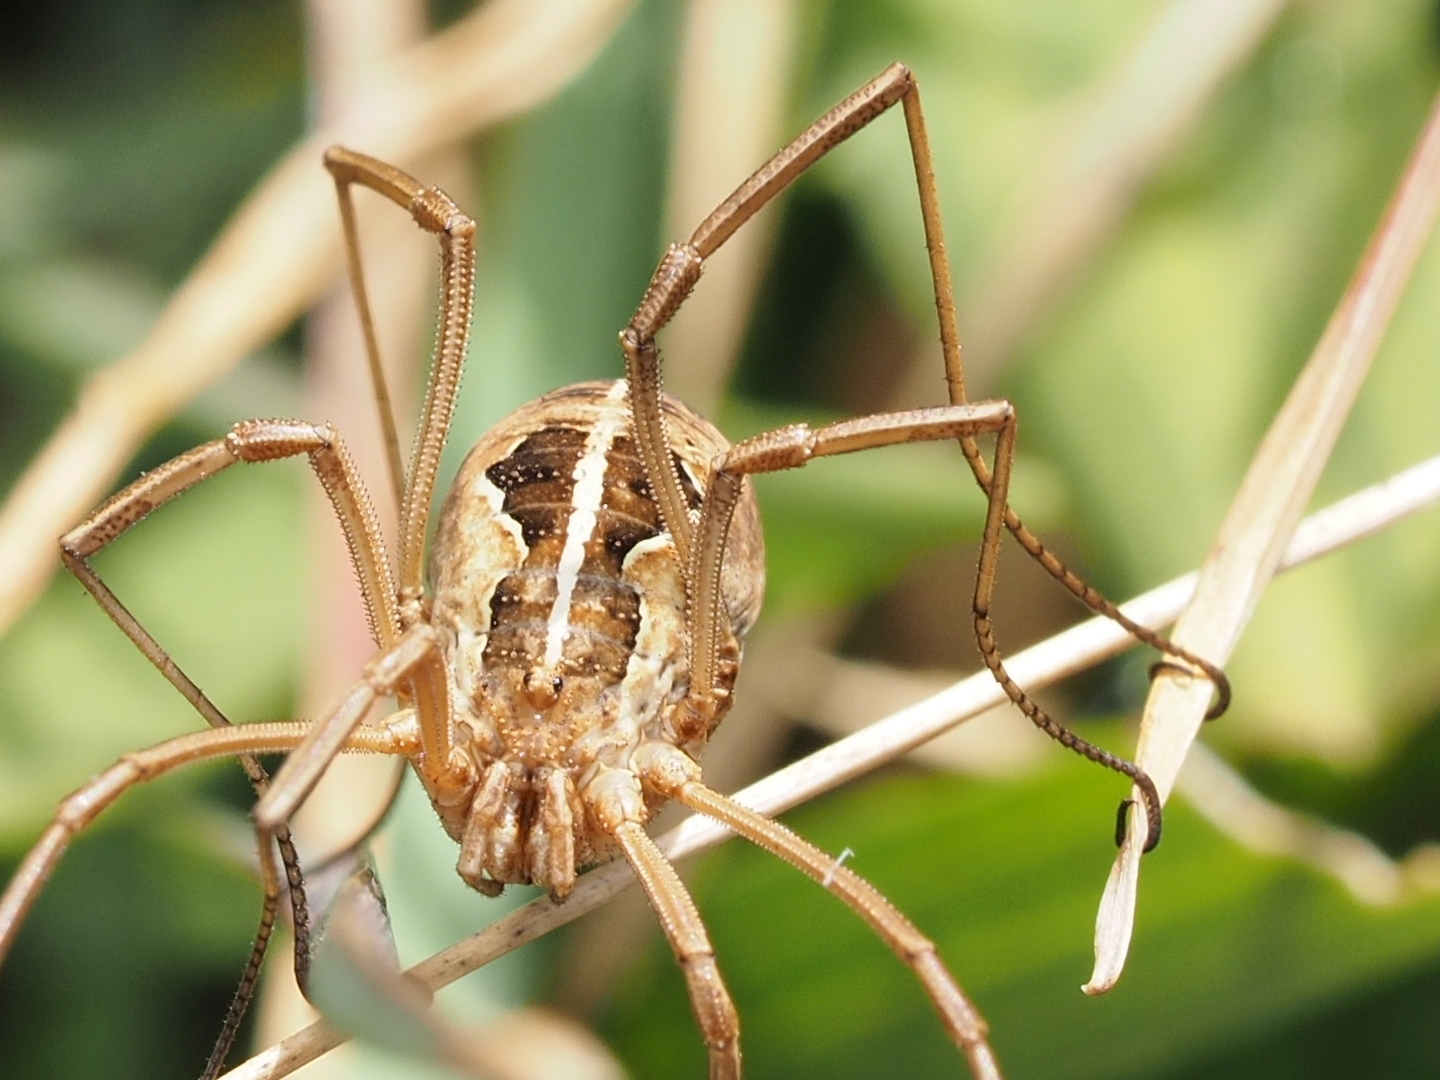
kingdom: Animalia
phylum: Arthropoda
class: Arachnida
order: Opiliones
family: Phalangiidae
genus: Metaphalangium
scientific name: Metaphalangium cirtanum
